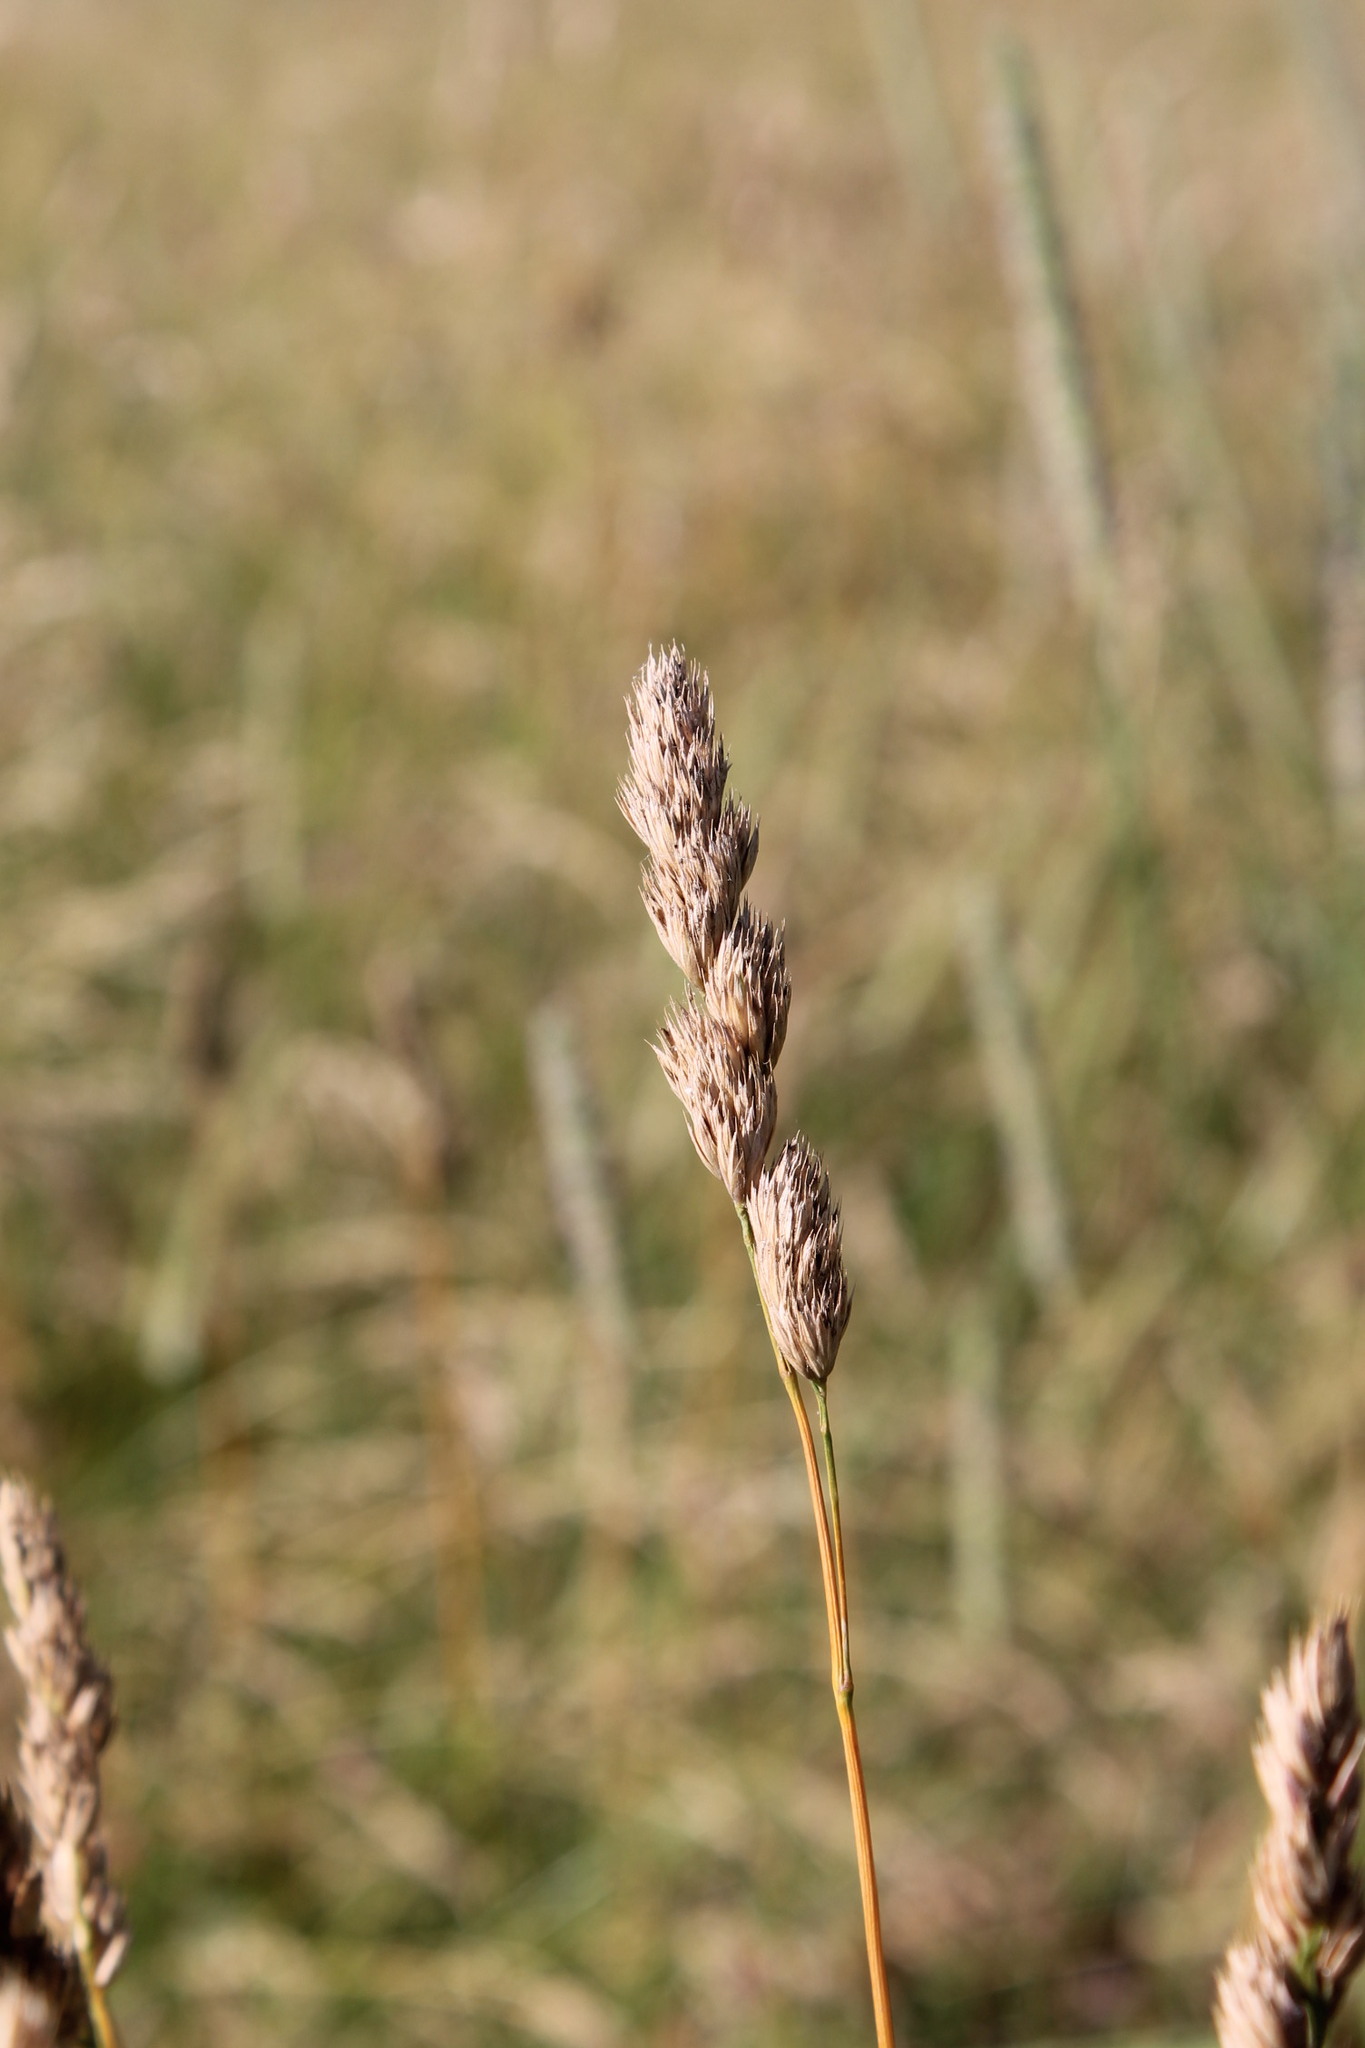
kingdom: Plantae
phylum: Tracheophyta
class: Liliopsida
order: Poales
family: Poaceae
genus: Dactylis
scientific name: Dactylis glomerata
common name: Orchardgrass
